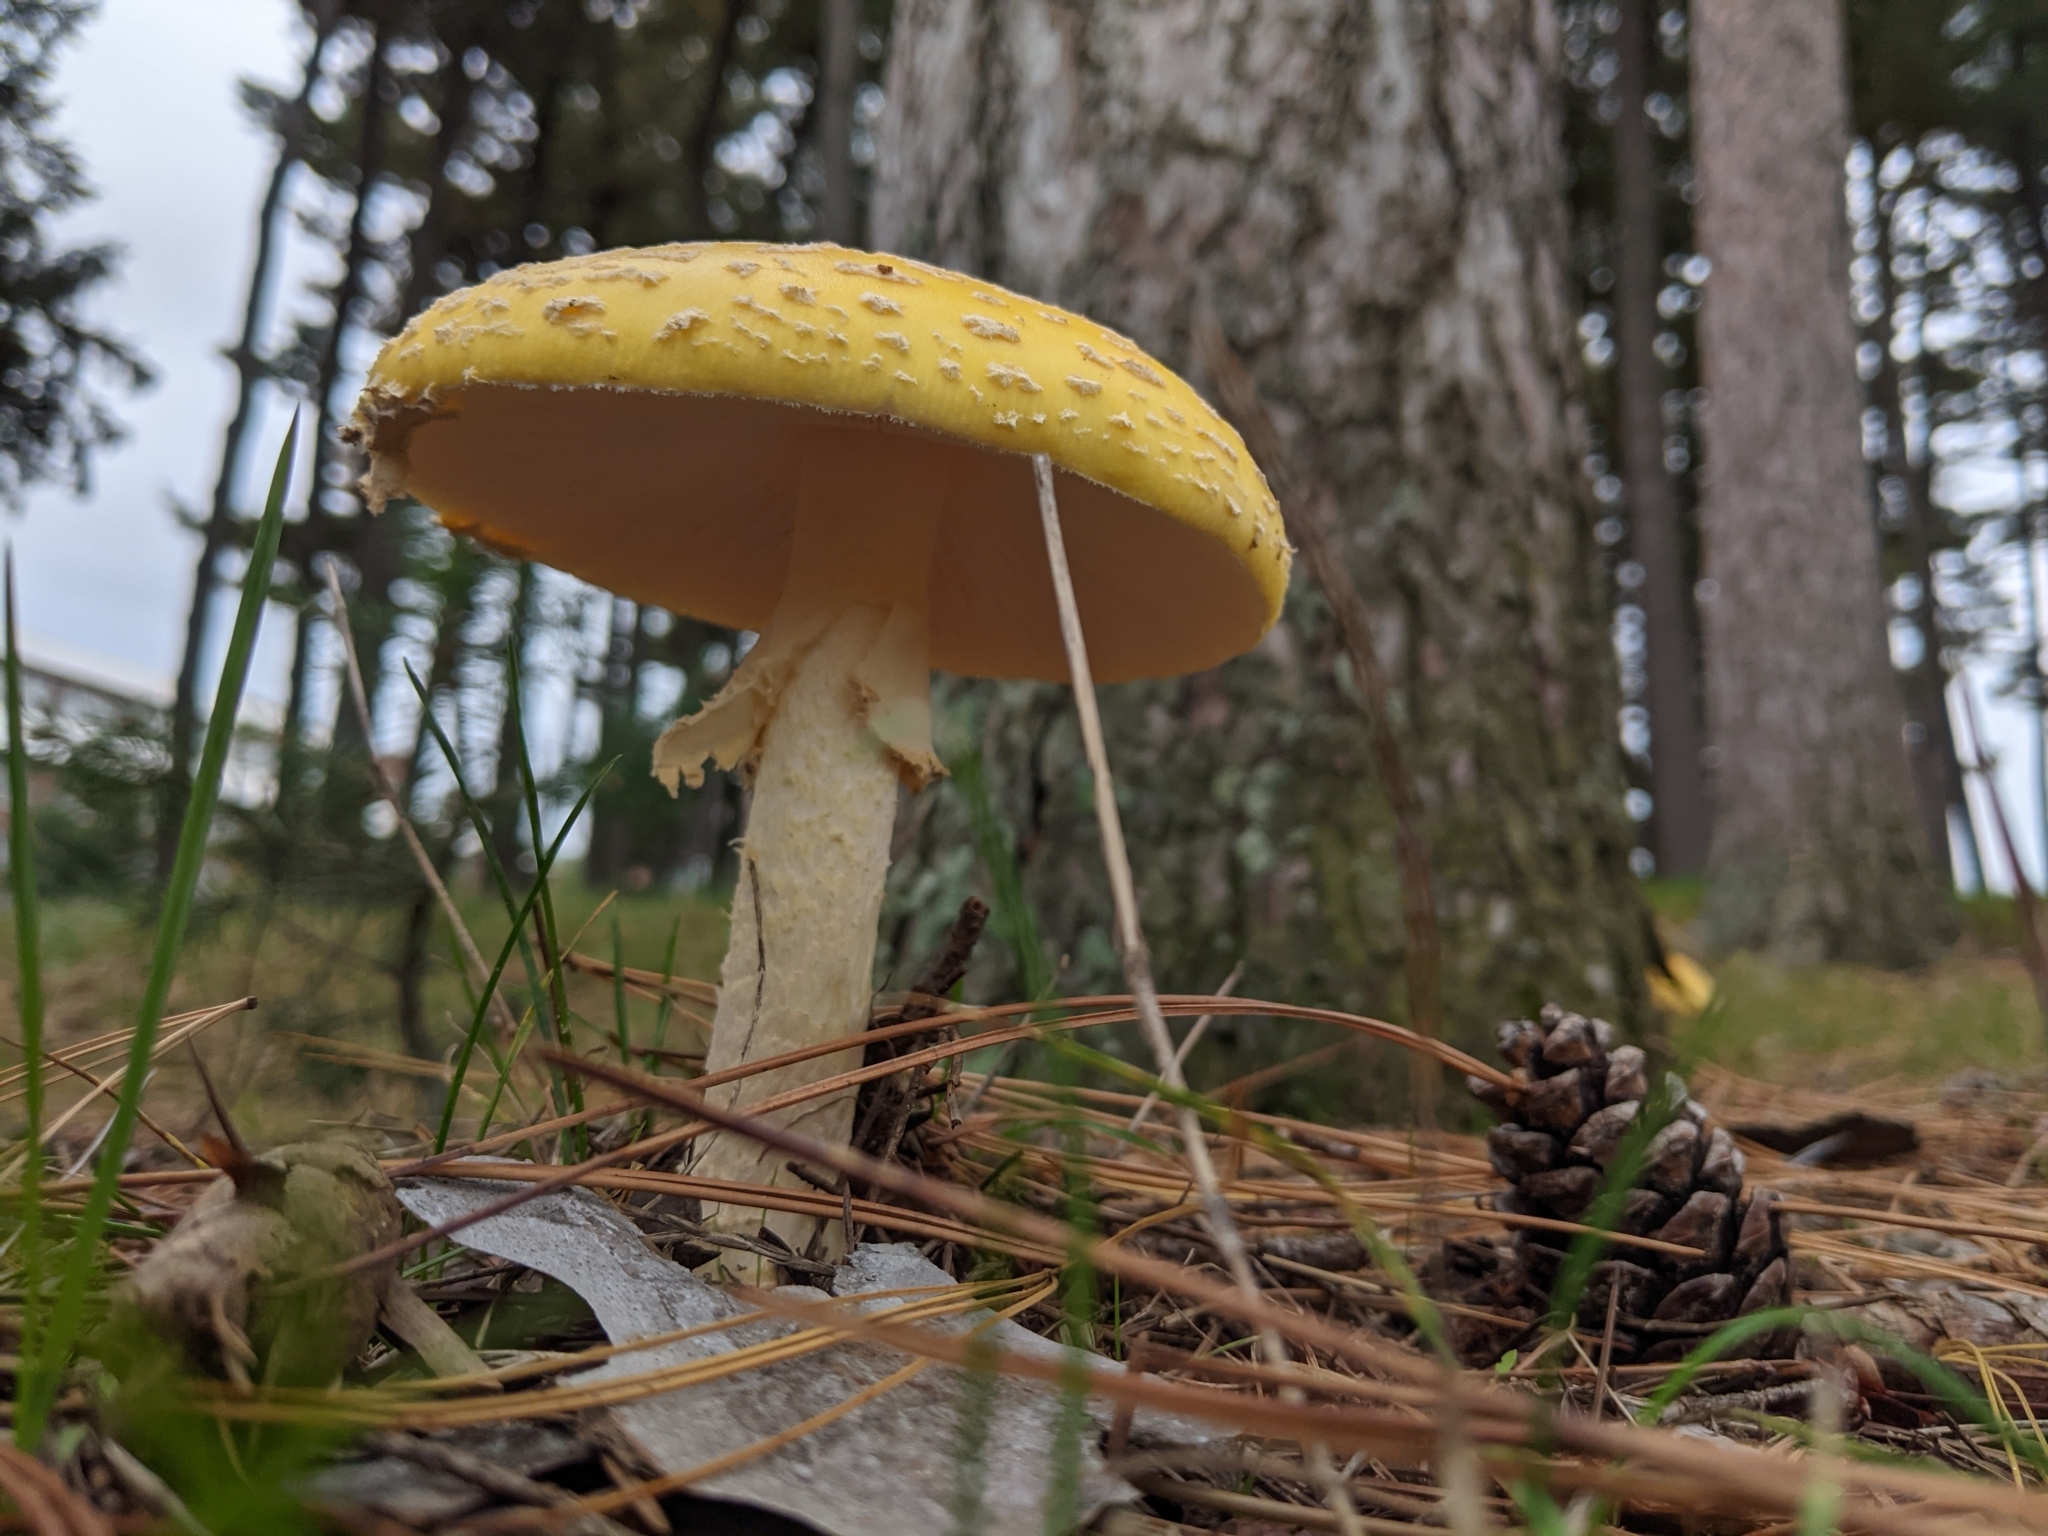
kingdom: Fungi
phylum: Basidiomycota
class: Agaricomycetes
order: Agaricales
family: Amanitaceae
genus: Amanita
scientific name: Amanita muscaria
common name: Fly agaric
